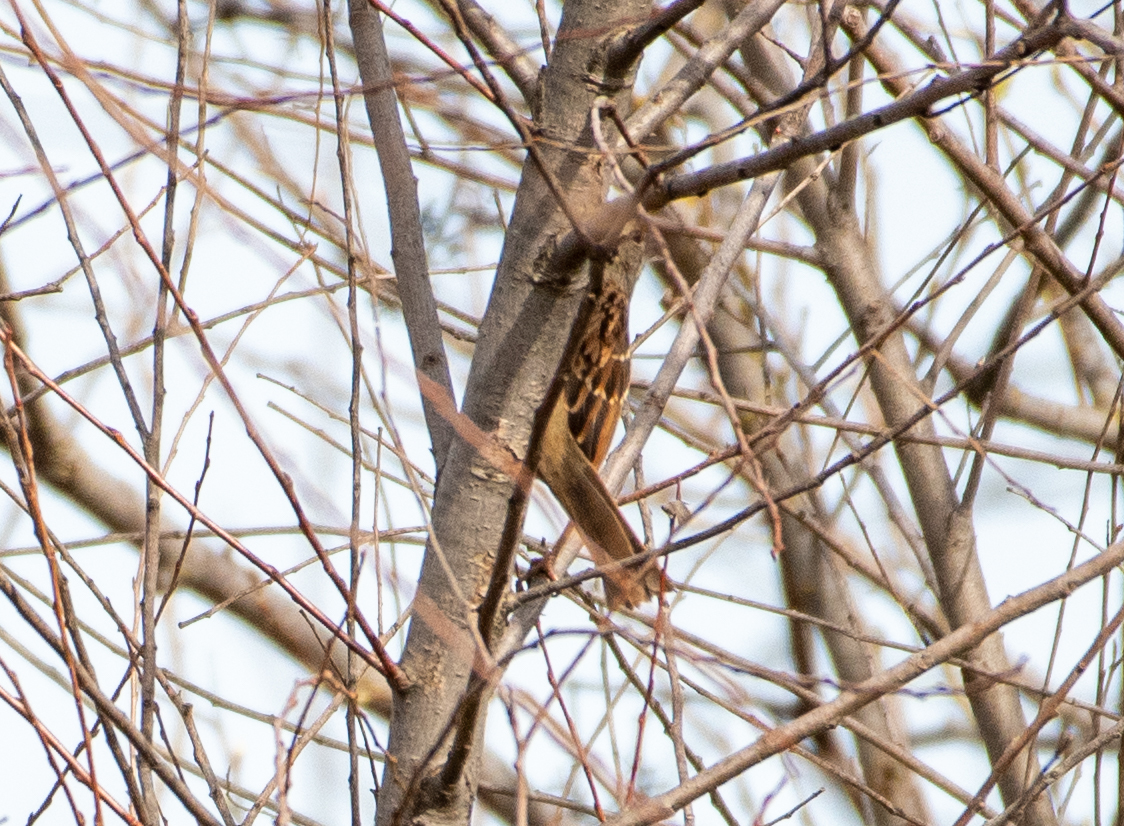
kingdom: Animalia
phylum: Chordata
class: Aves
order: Passeriformes
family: Passerellidae
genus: Zonotrichia
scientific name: Zonotrichia albicollis
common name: White-throated sparrow
